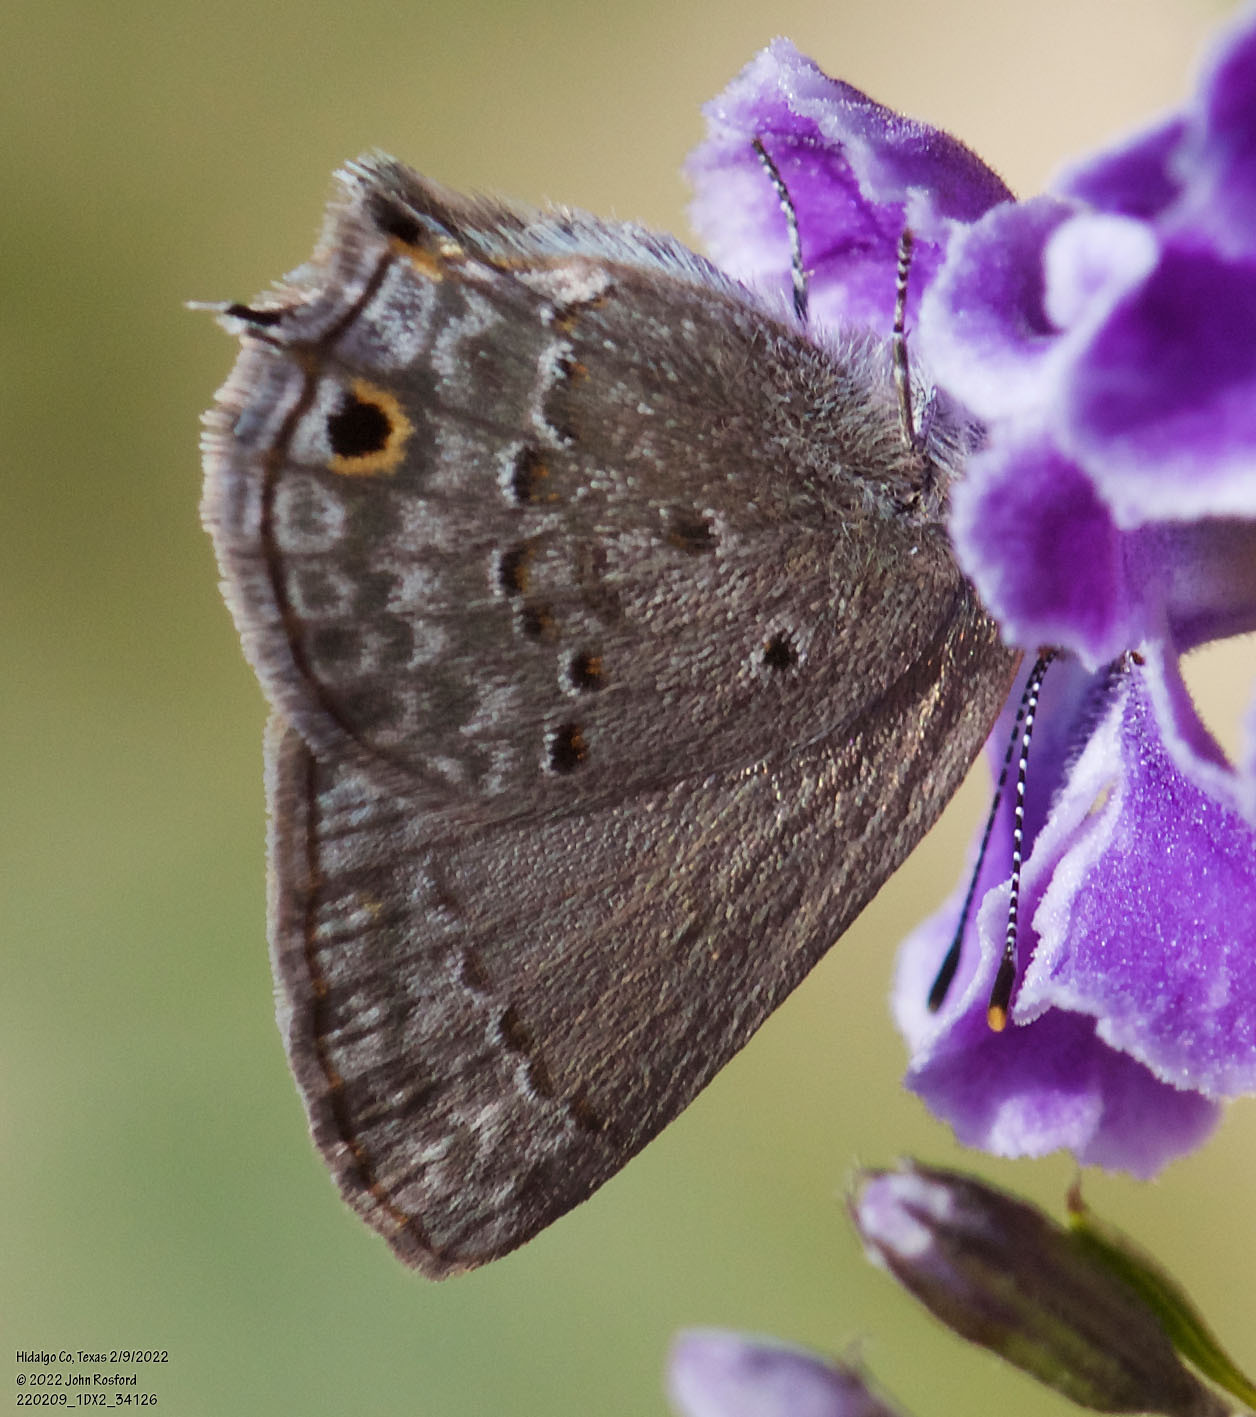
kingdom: Animalia
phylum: Arthropoda
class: Insecta
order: Lepidoptera
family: Lycaenidae
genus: Callicista
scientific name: Callicista columella
